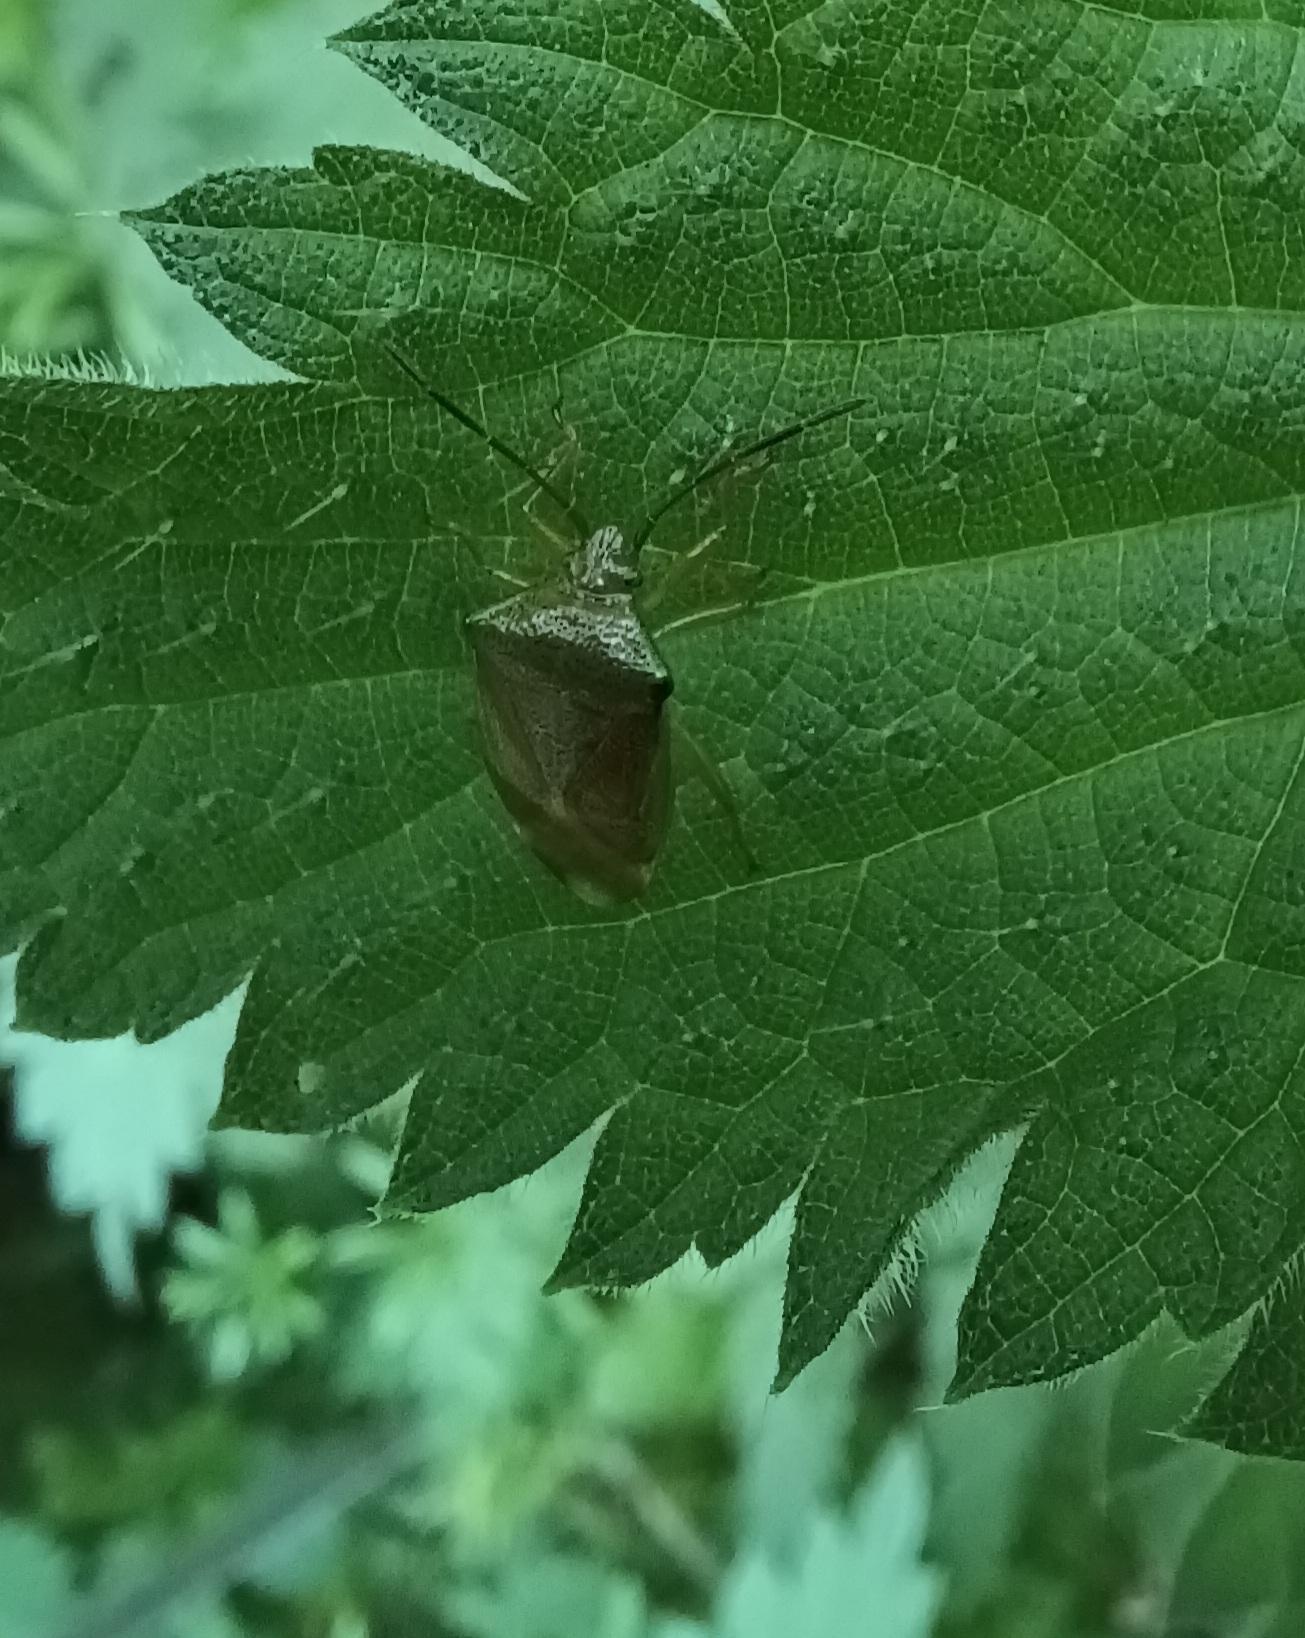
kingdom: Animalia
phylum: Arthropoda
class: Insecta
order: Hemiptera
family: Acanthosomatidae
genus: Elasmostethus
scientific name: Elasmostethus interstinctus
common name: Birch shieldbug
